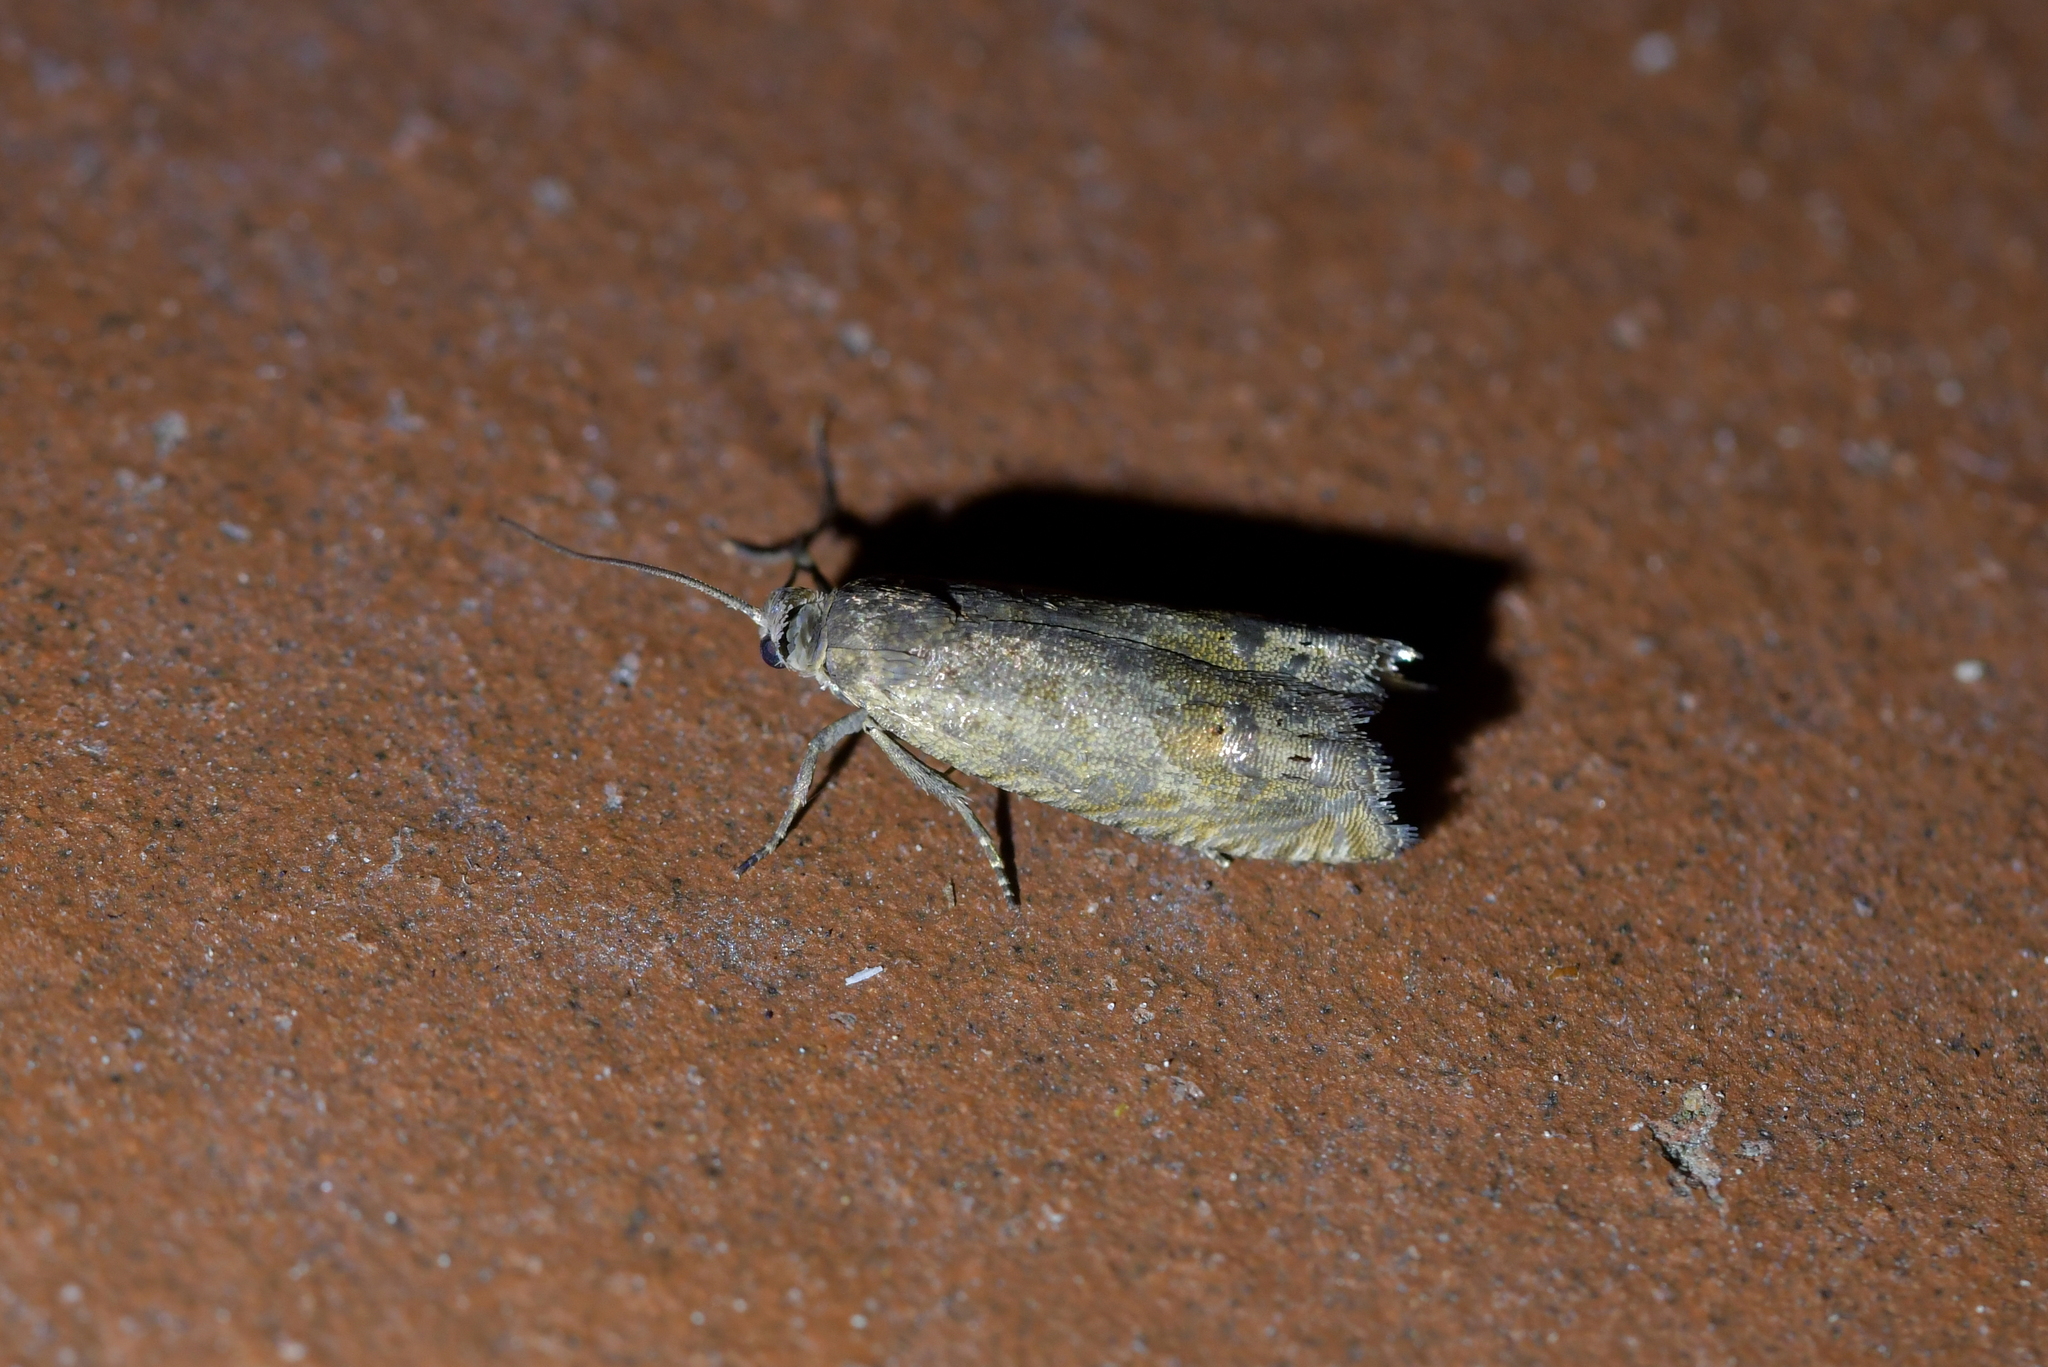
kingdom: Animalia
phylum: Arthropoda
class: Insecta
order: Lepidoptera
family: Tortricidae
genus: Cydia
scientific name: Cydia succedana
